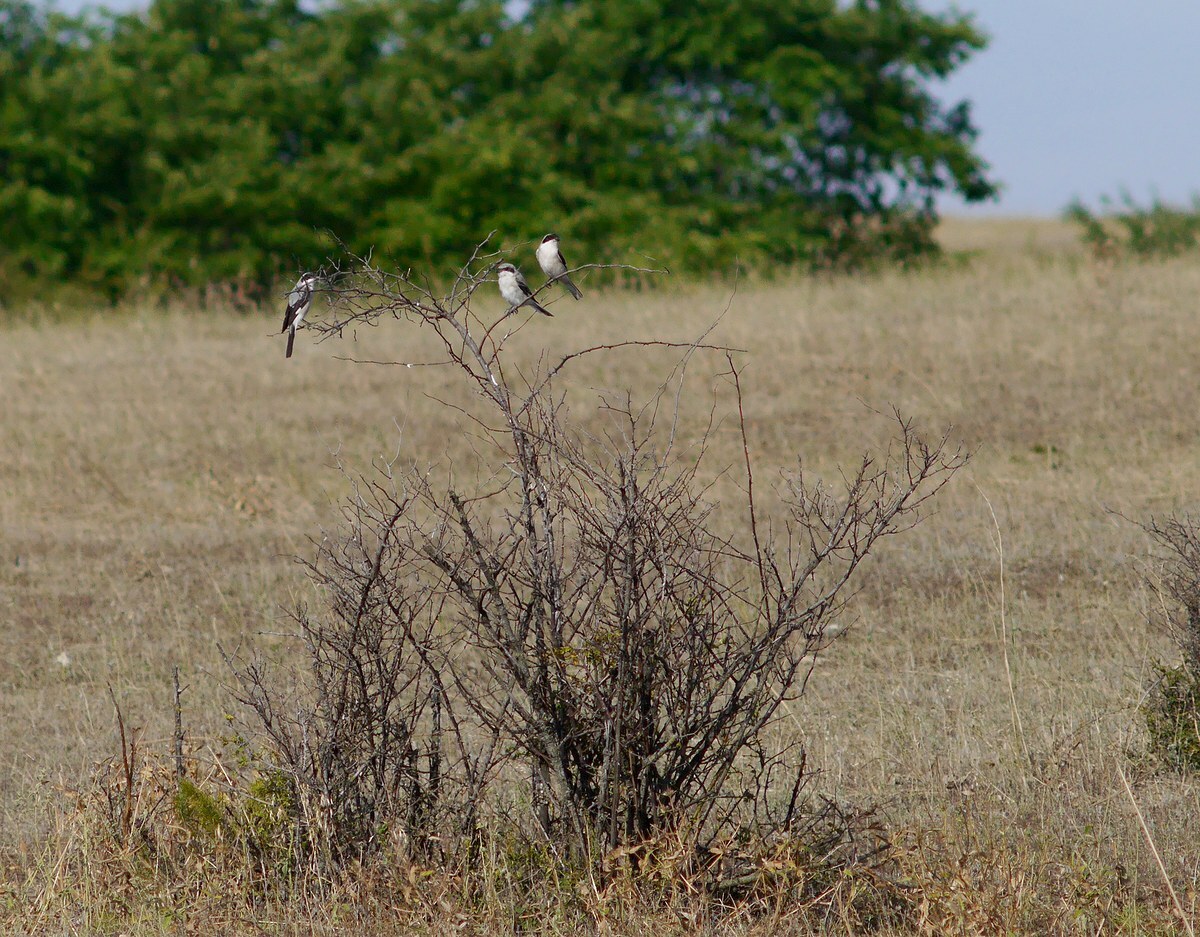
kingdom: Animalia
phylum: Chordata
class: Aves
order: Passeriformes
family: Laniidae
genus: Lanius
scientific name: Lanius minor
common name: Lesser grey shrike
